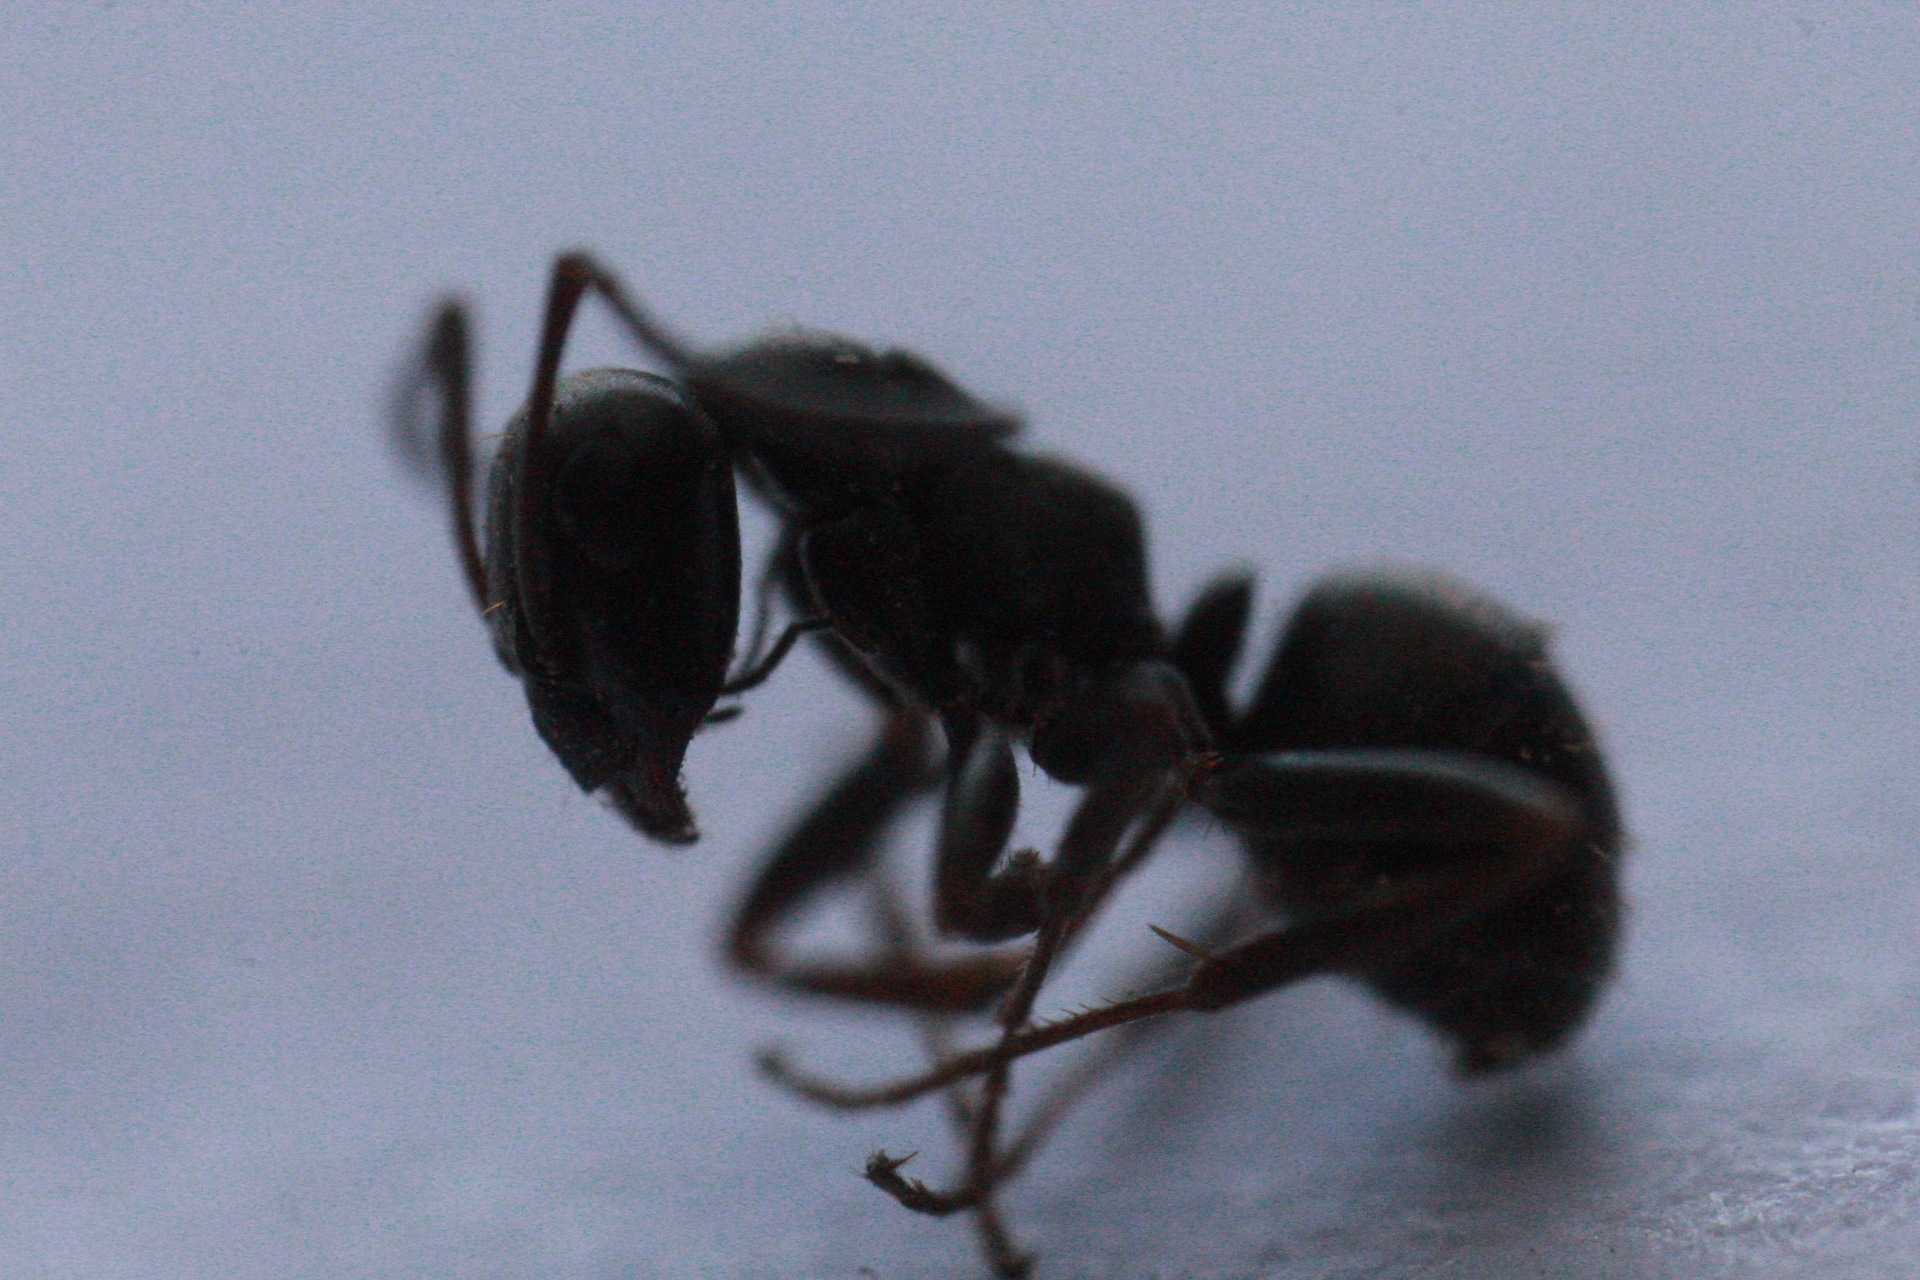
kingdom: Animalia
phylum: Arthropoda
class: Insecta
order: Hymenoptera
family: Formicidae
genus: Formica
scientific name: Formica fusca
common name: Silky ant
